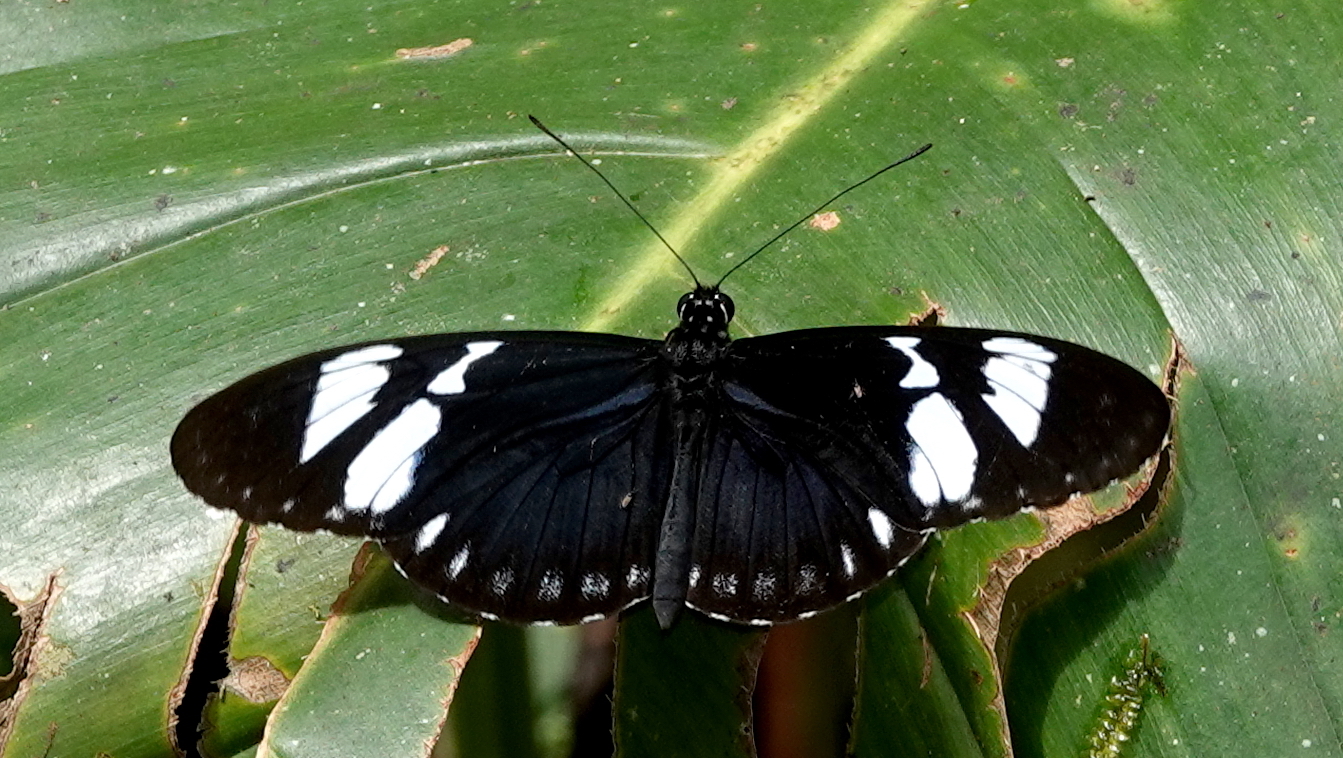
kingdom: Animalia
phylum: Arthropoda
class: Insecta
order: Lepidoptera
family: Nymphalidae
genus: Heliconius
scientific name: Heliconius cydno
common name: Cydno longwing
